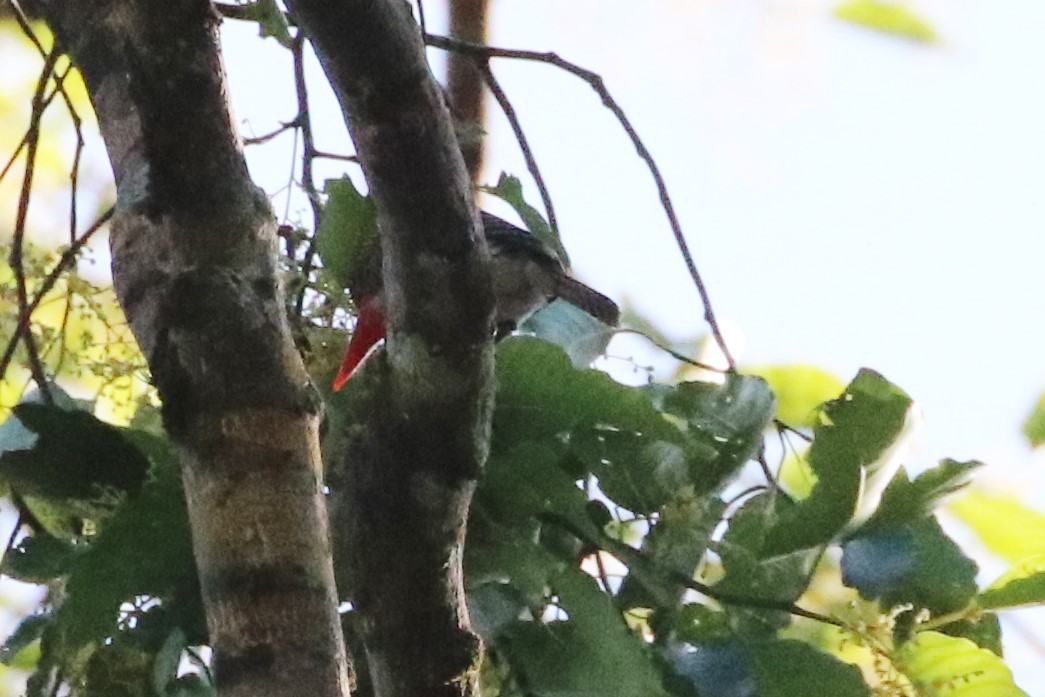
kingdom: Animalia
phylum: Chordata
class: Aves
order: Coraciiformes
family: Alcedinidae
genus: Lacedo
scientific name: Lacedo pulchella
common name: Banded kingfisher
